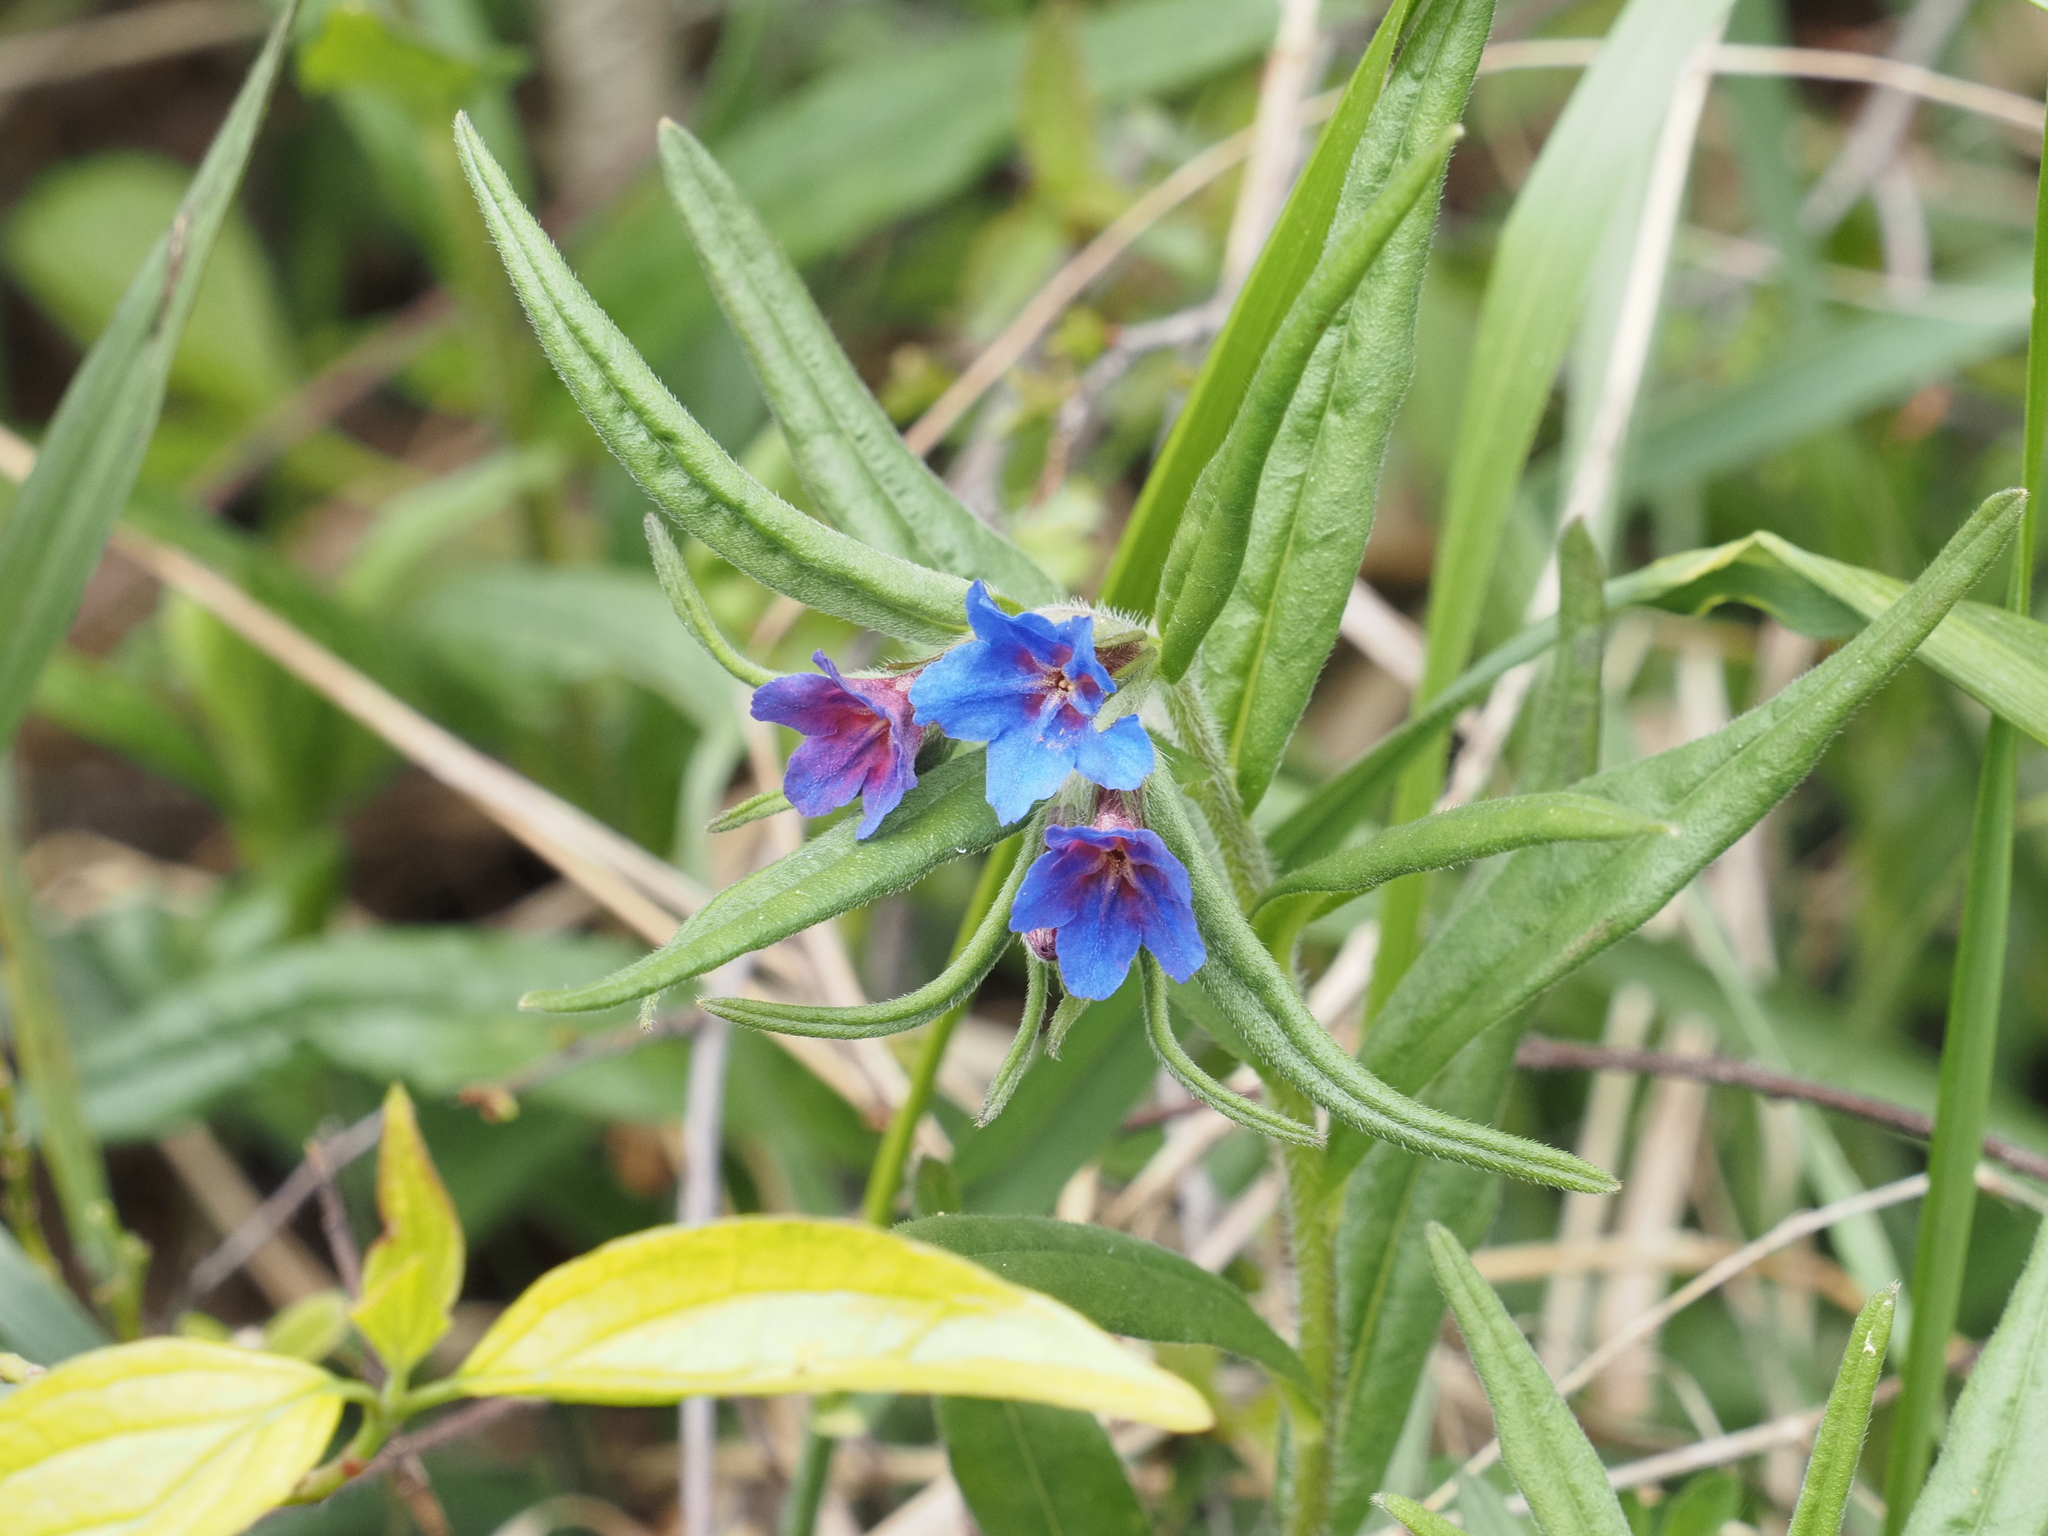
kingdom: Plantae
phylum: Tracheophyta
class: Magnoliopsida
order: Boraginales
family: Boraginaceae
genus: Aegonychon
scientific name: Aegonychon purpurocaeruleum
